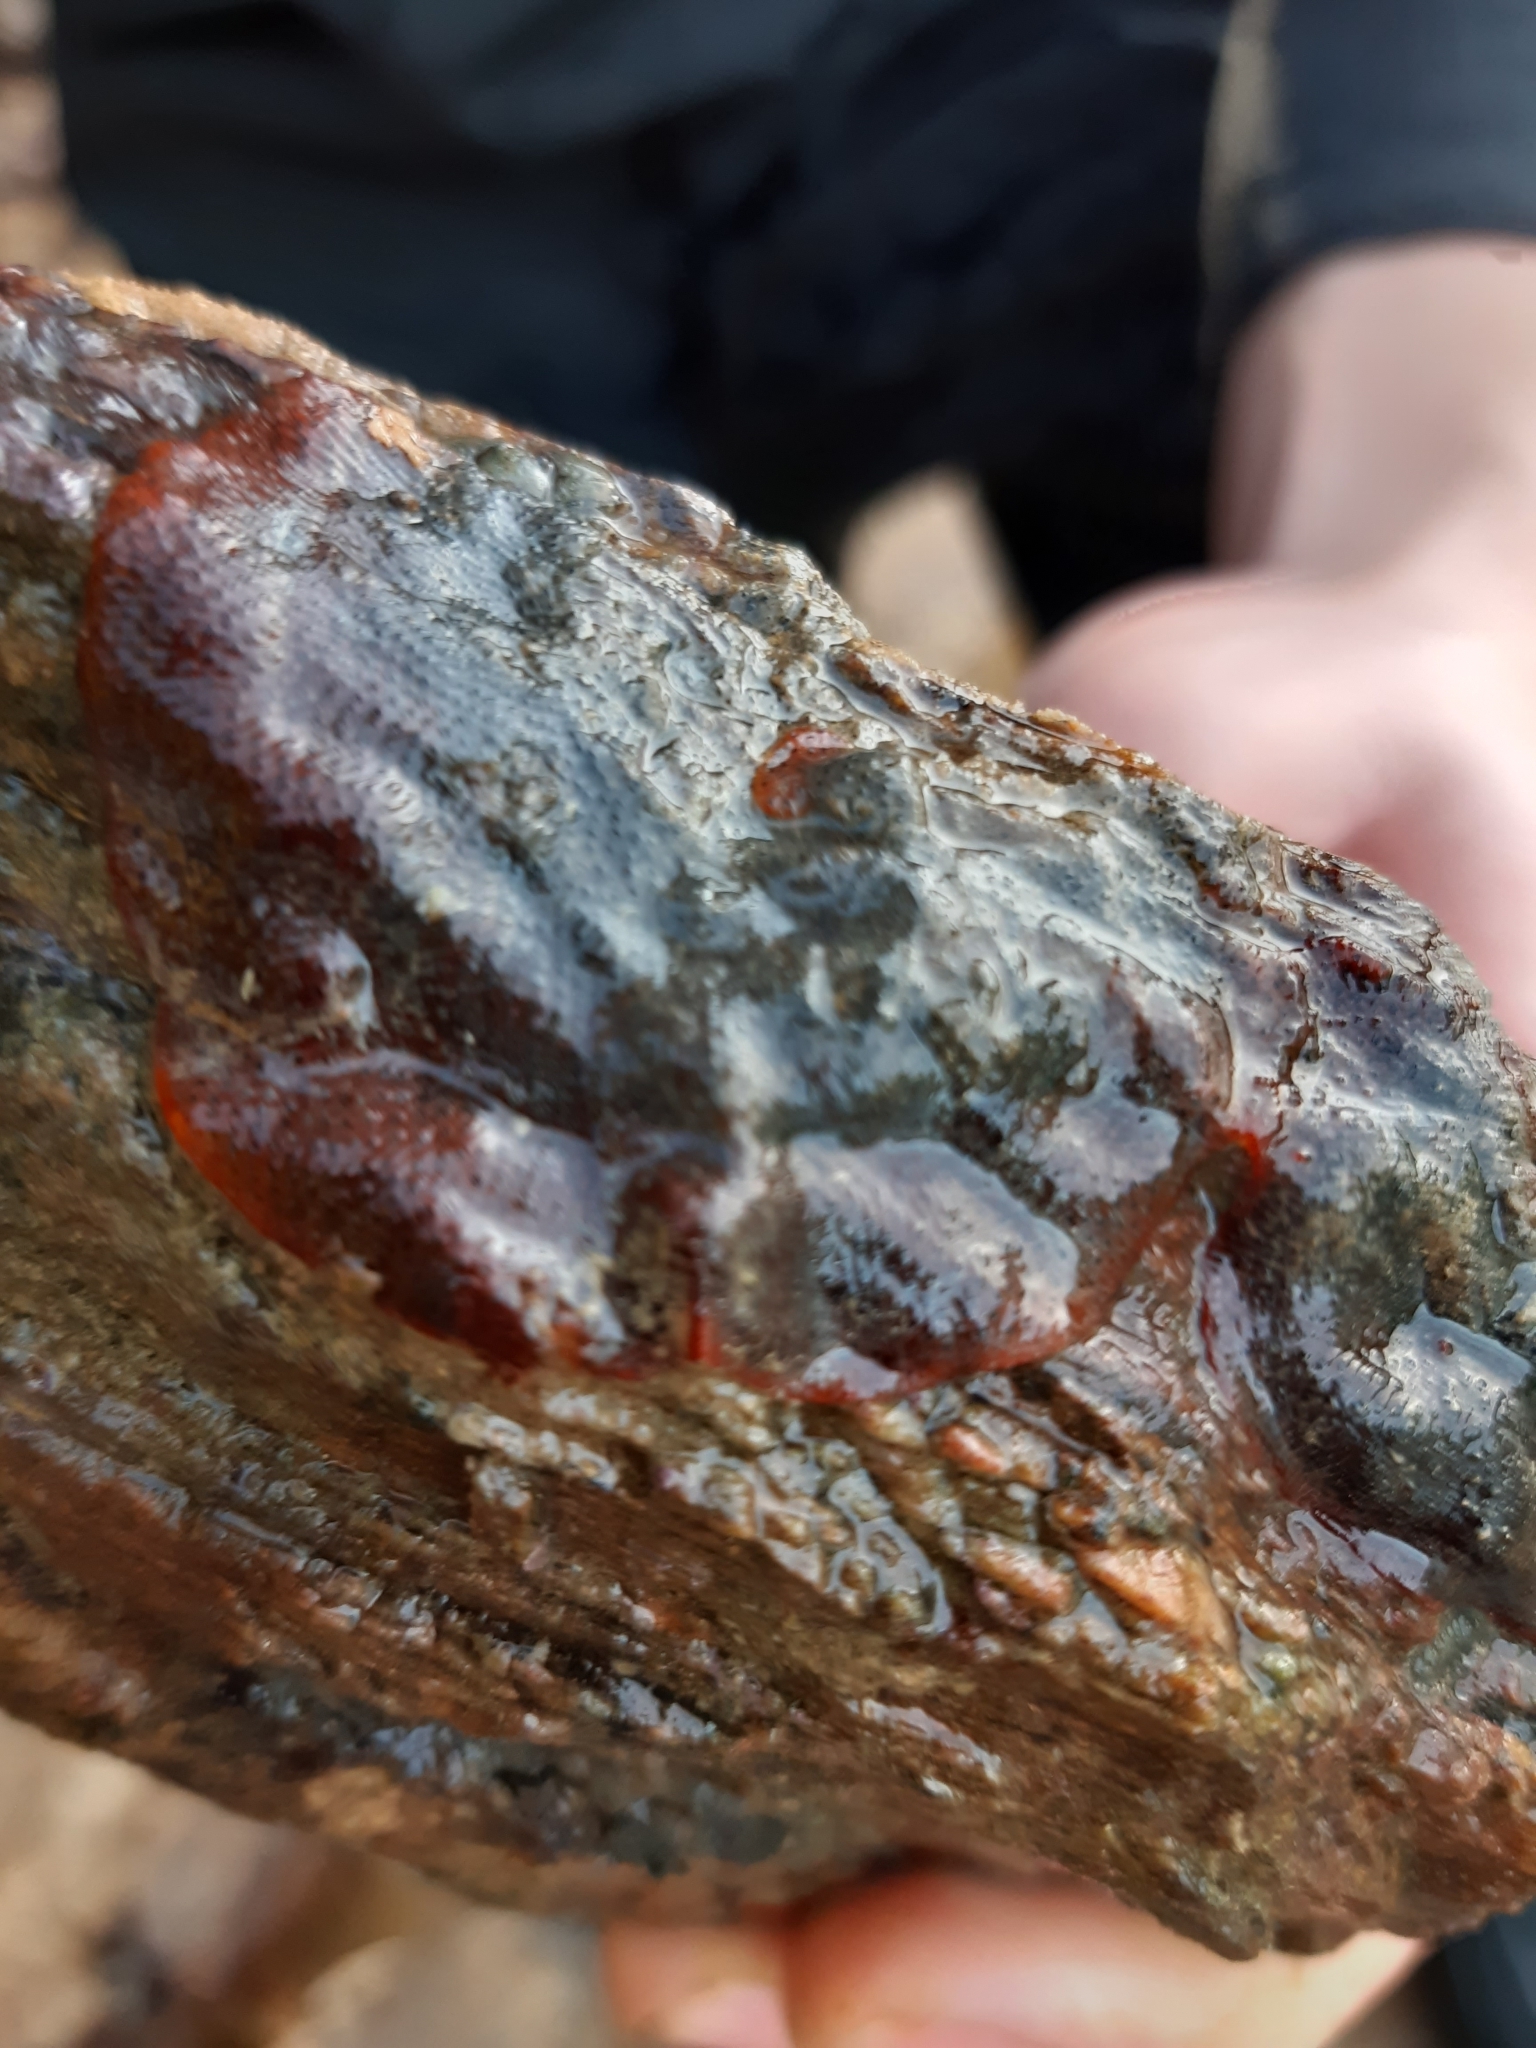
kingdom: Animalia
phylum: Bryozoa
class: Gymnolaemata
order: Cheilostomatida
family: Watersiporidae
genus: Watersipora
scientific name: Watersipora subatra
